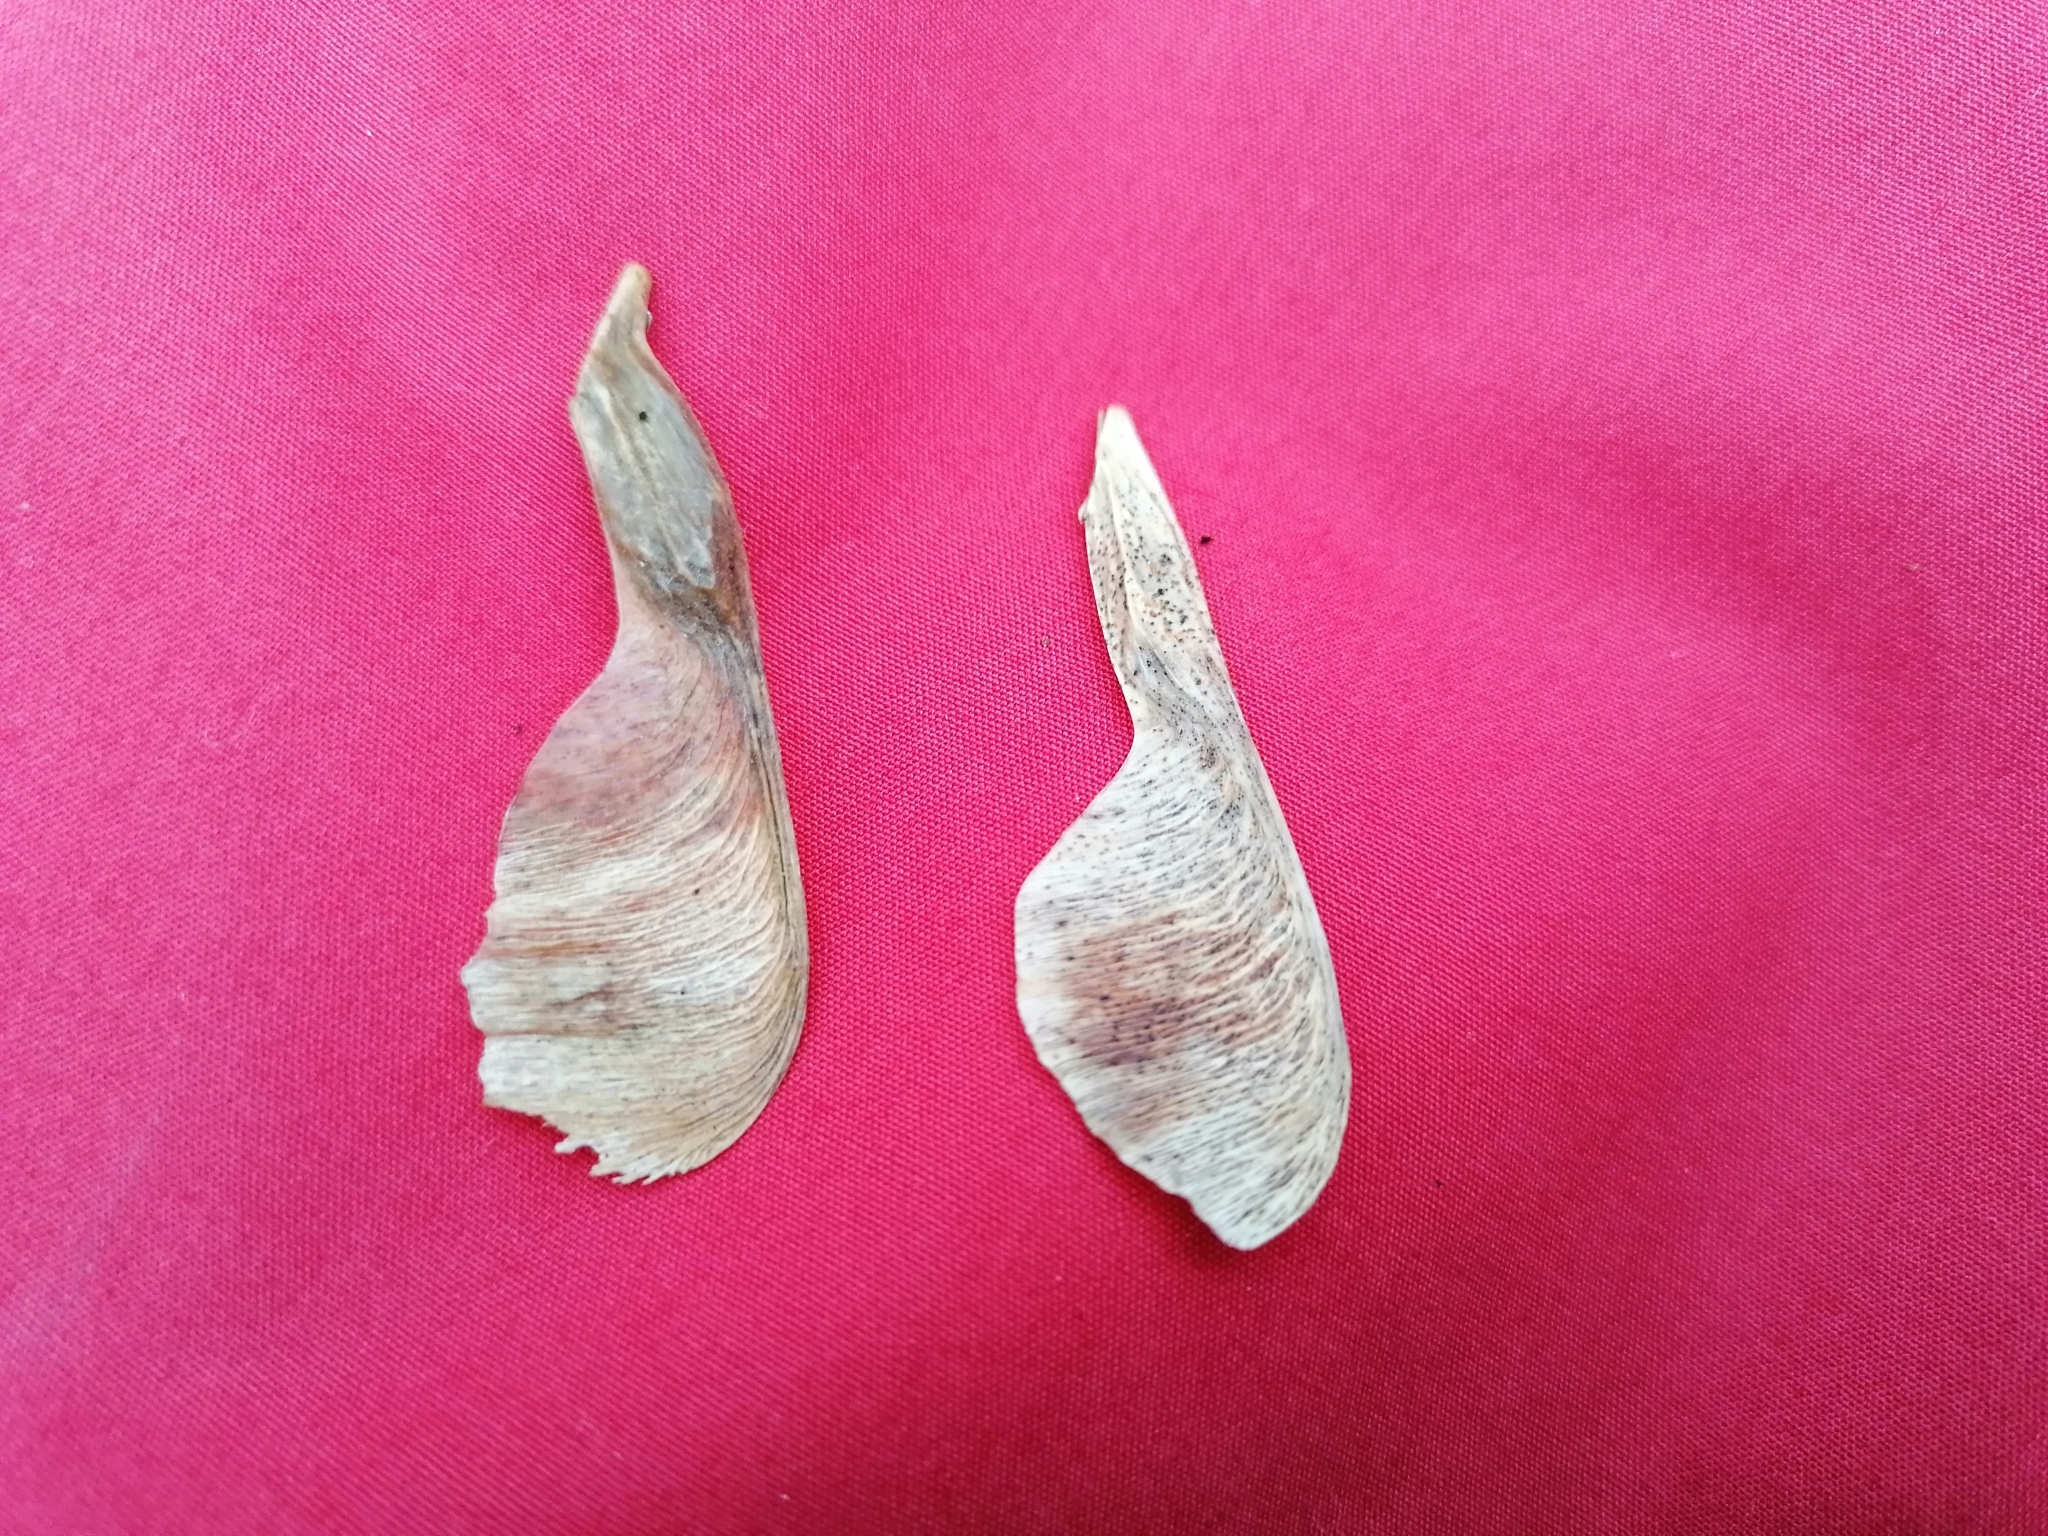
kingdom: Plantae
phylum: Tracheophyta
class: Magnoliopsida
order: Sapindales
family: Sapindaceae
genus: Acer
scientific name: Acer negundo
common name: Ashleaf maple
